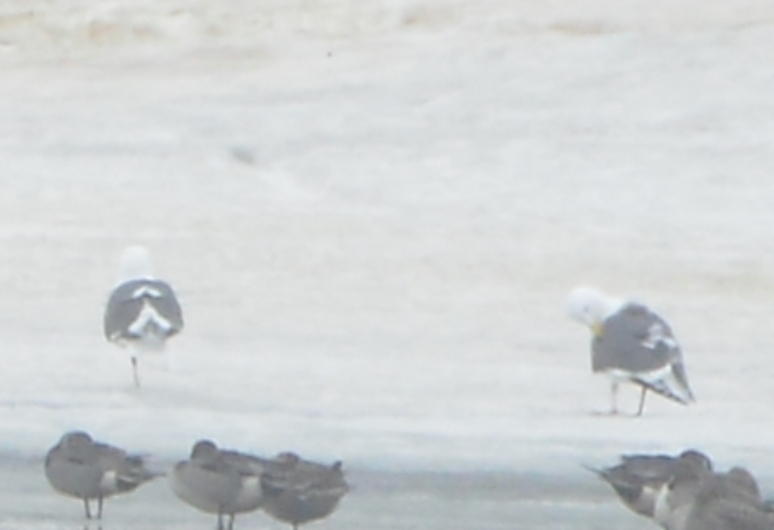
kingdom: Animalia
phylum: Chordata
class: Aves
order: Charadriiformes
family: Laridae
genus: Larus
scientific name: Larus schistisagus
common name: Slaty-backed gull
